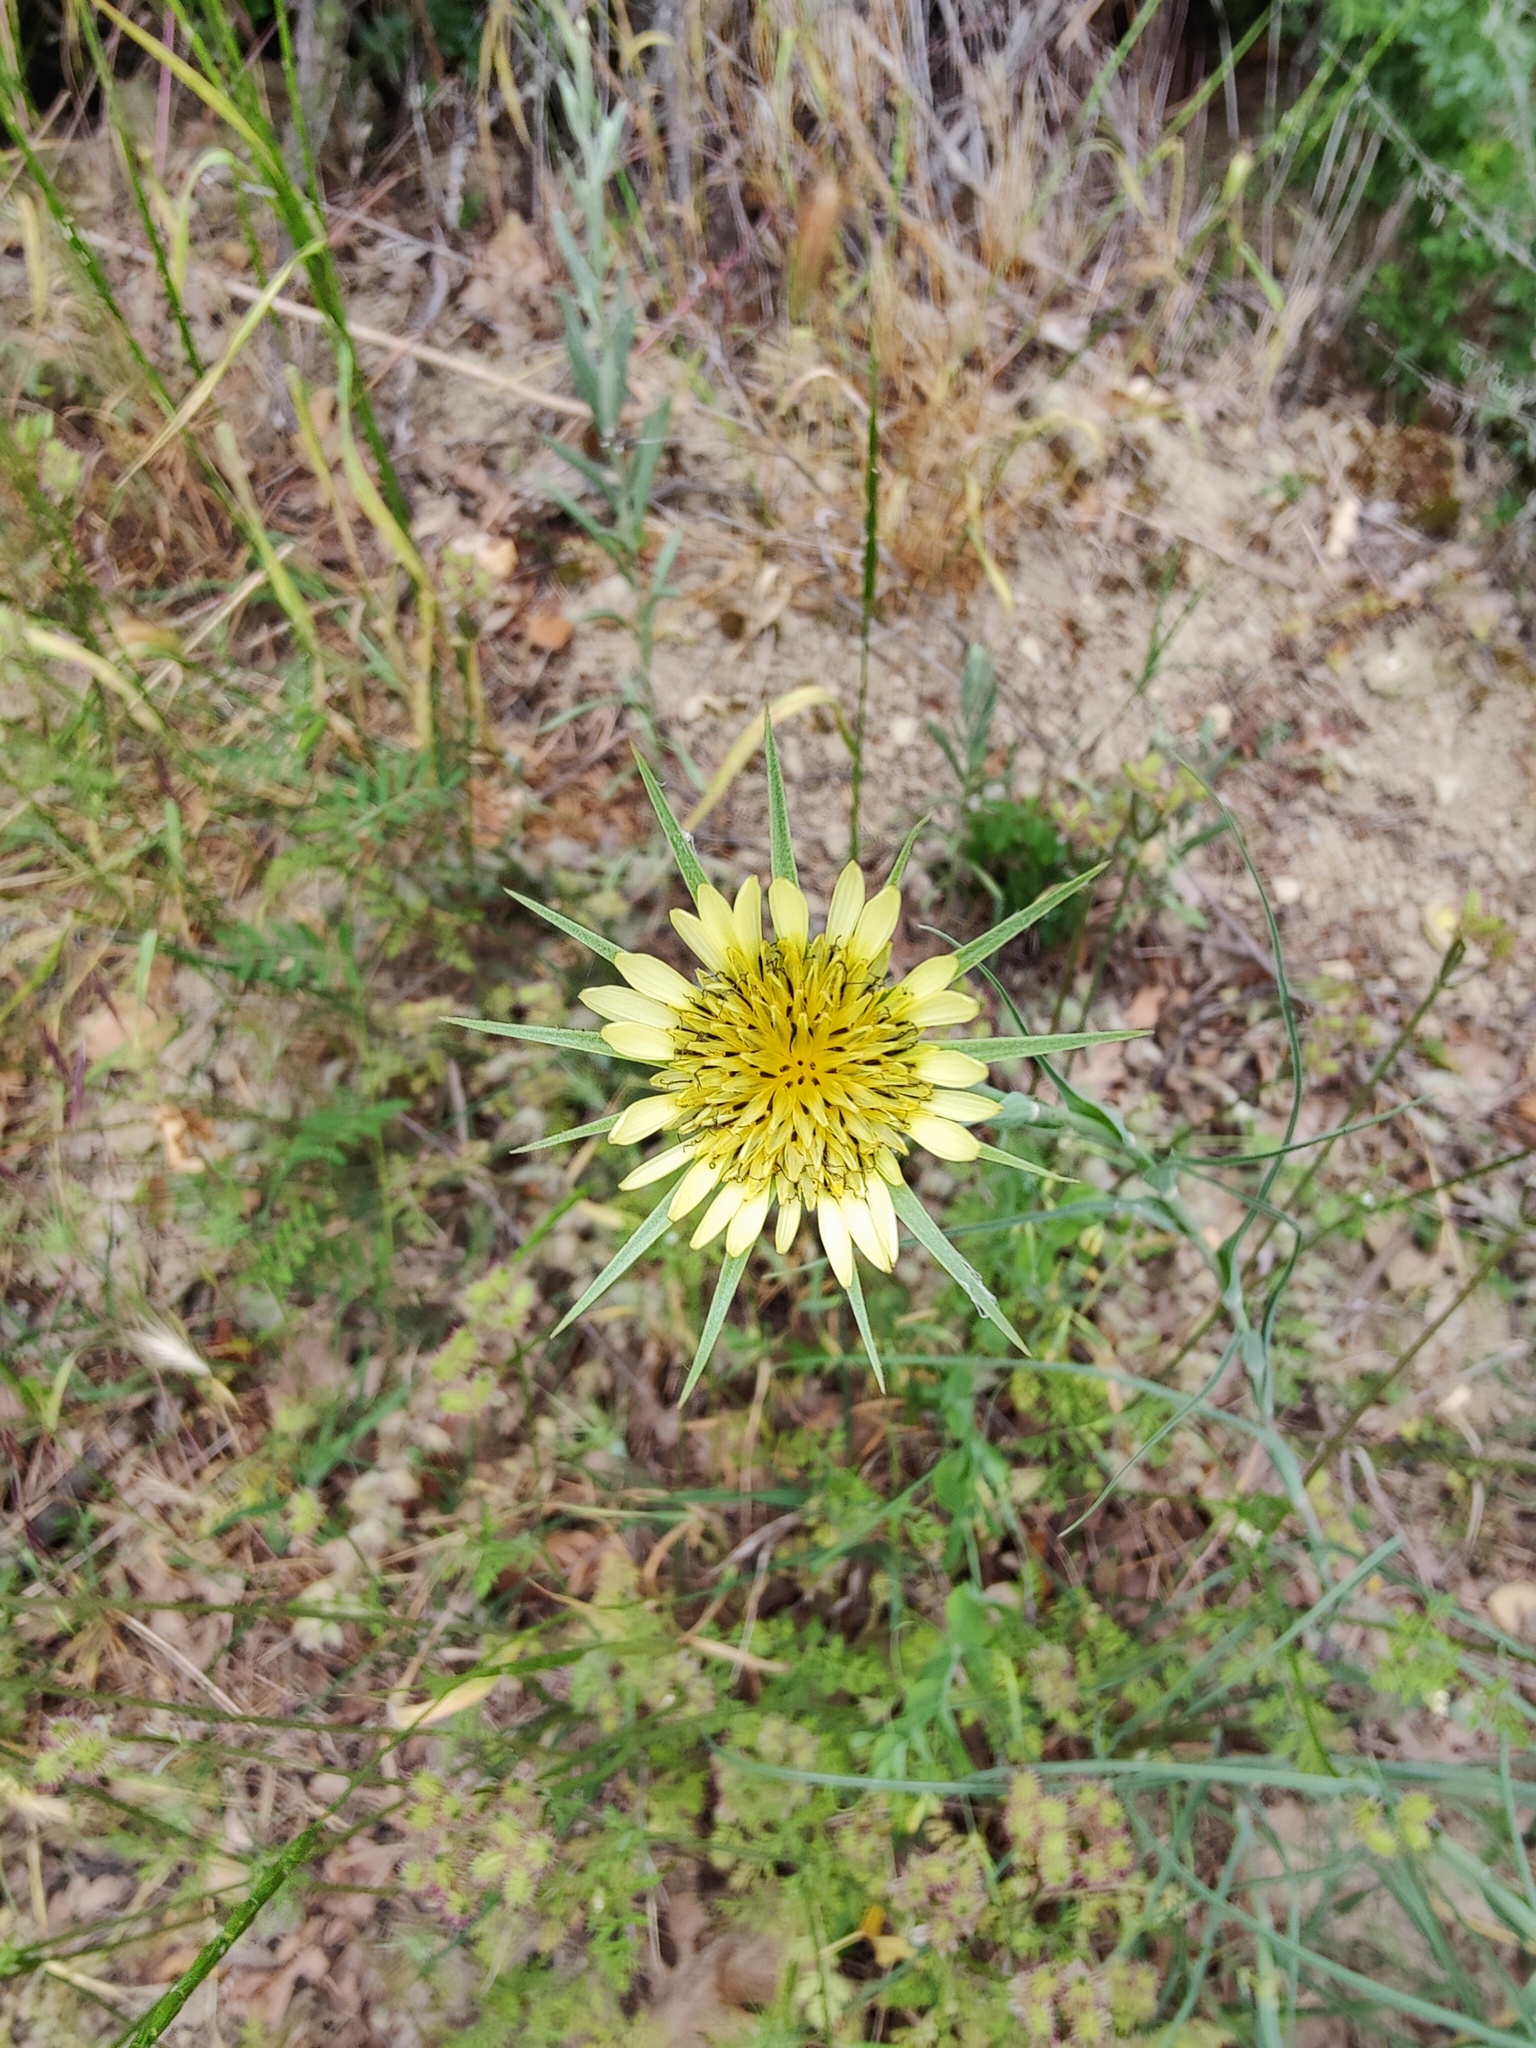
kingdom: Plantae
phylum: Tracheophyta
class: Magnoliopsida
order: Asterales
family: Asteraceae
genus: Tragopogon
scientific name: Tragopogon dubius
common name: Yellow salsify
